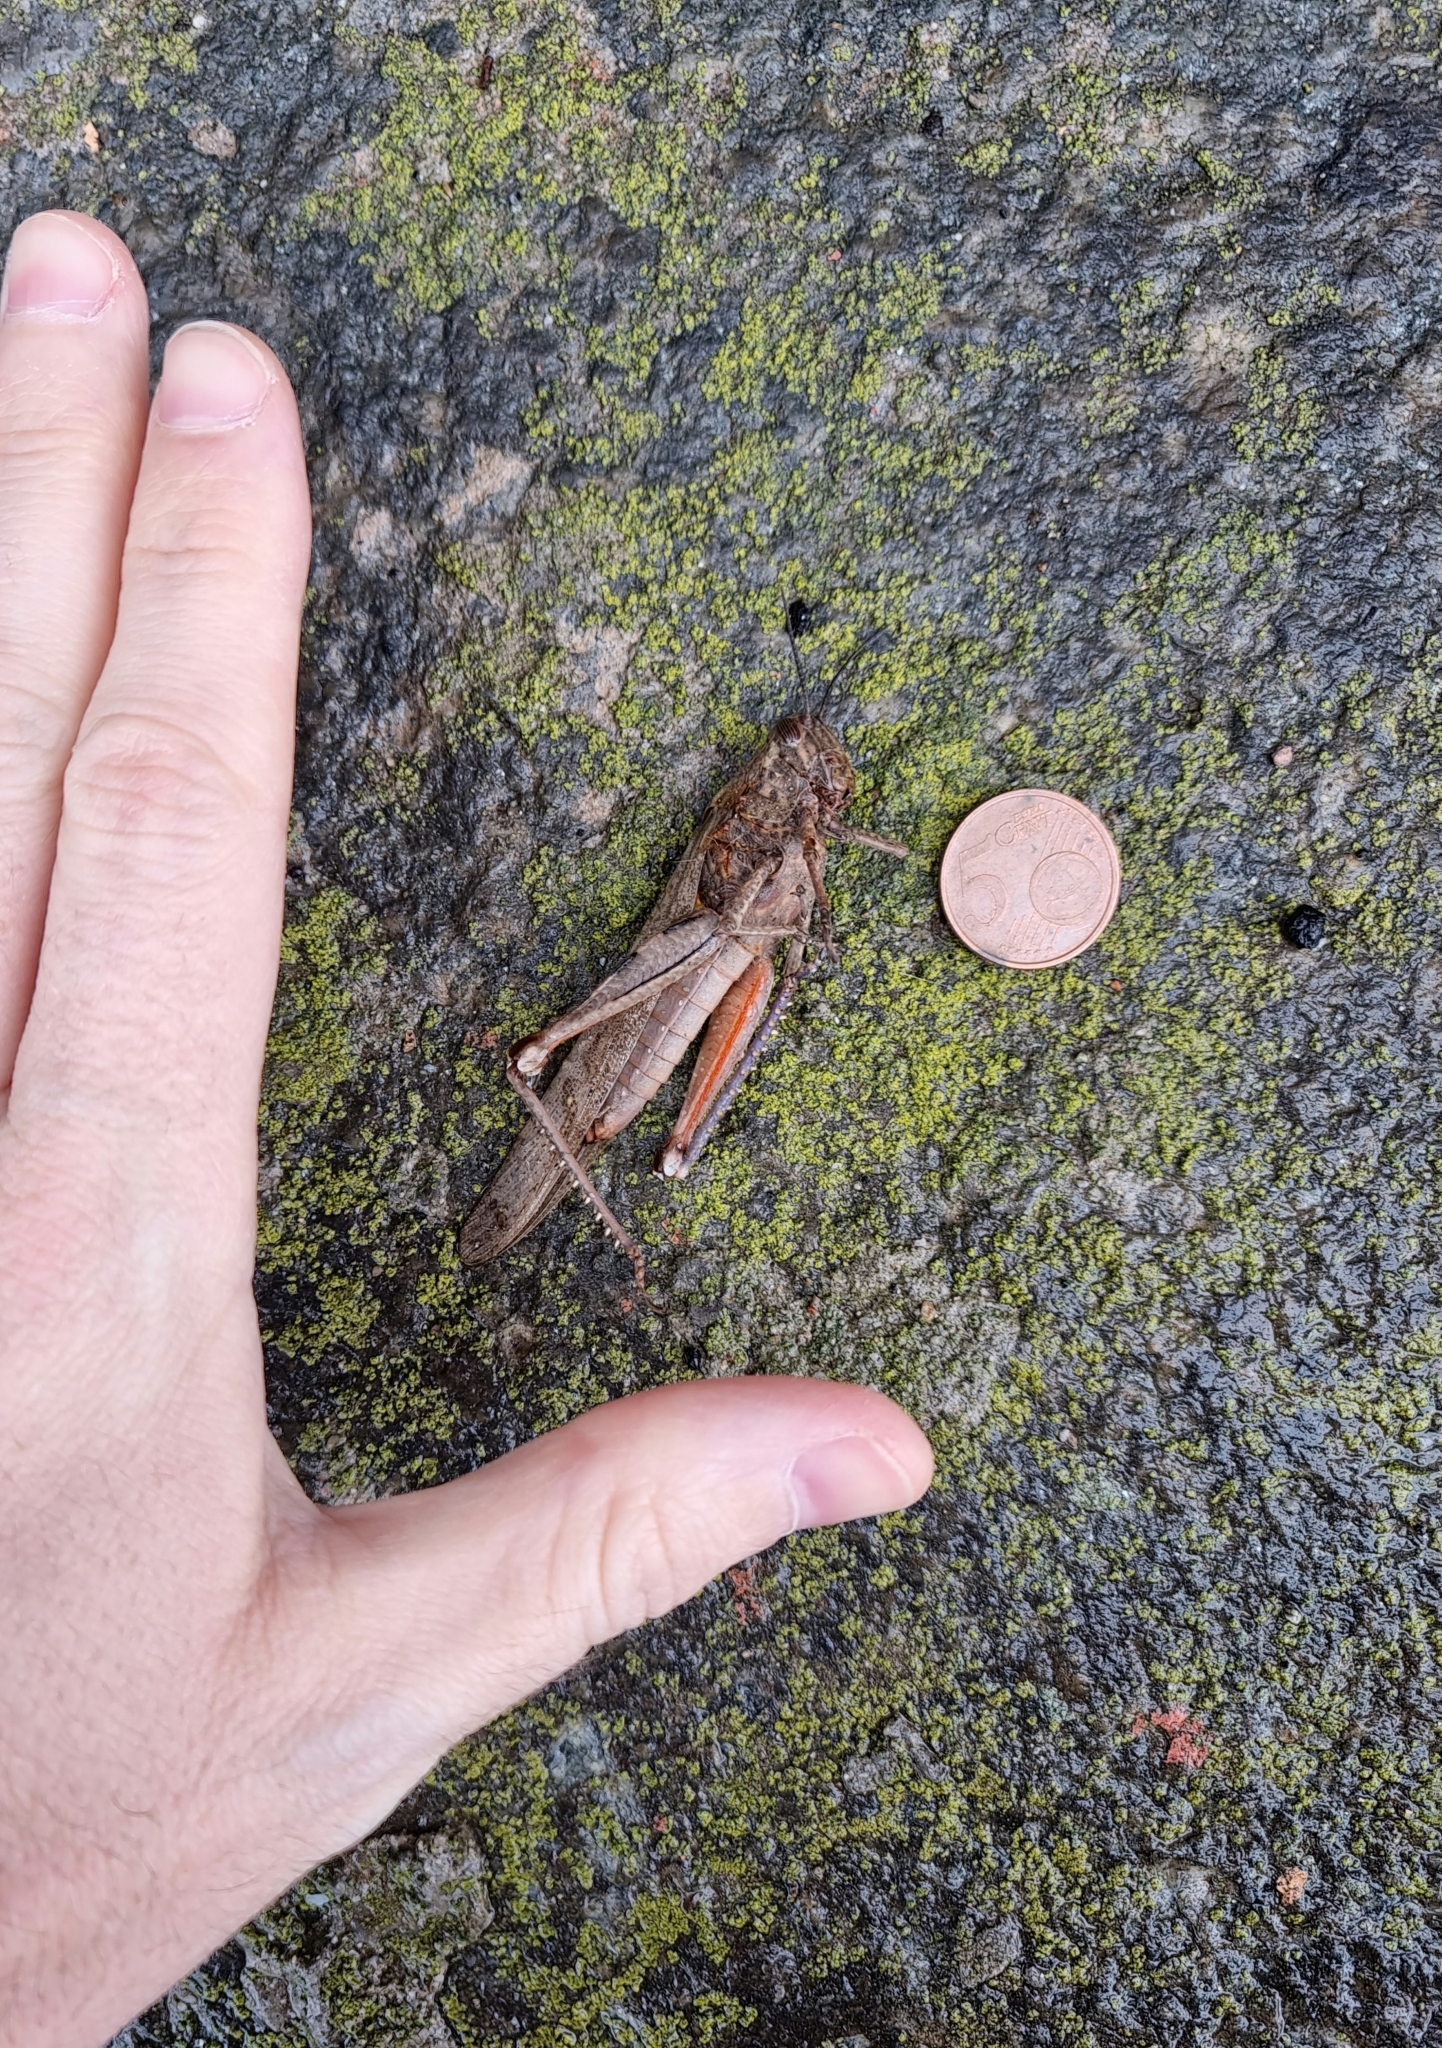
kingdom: Animalia
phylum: Arthropoda
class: Insecta
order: Orthoptera
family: Acrididae
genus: Anacridium
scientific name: Anacridium aegyptium
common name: Egyptian grasshopper
